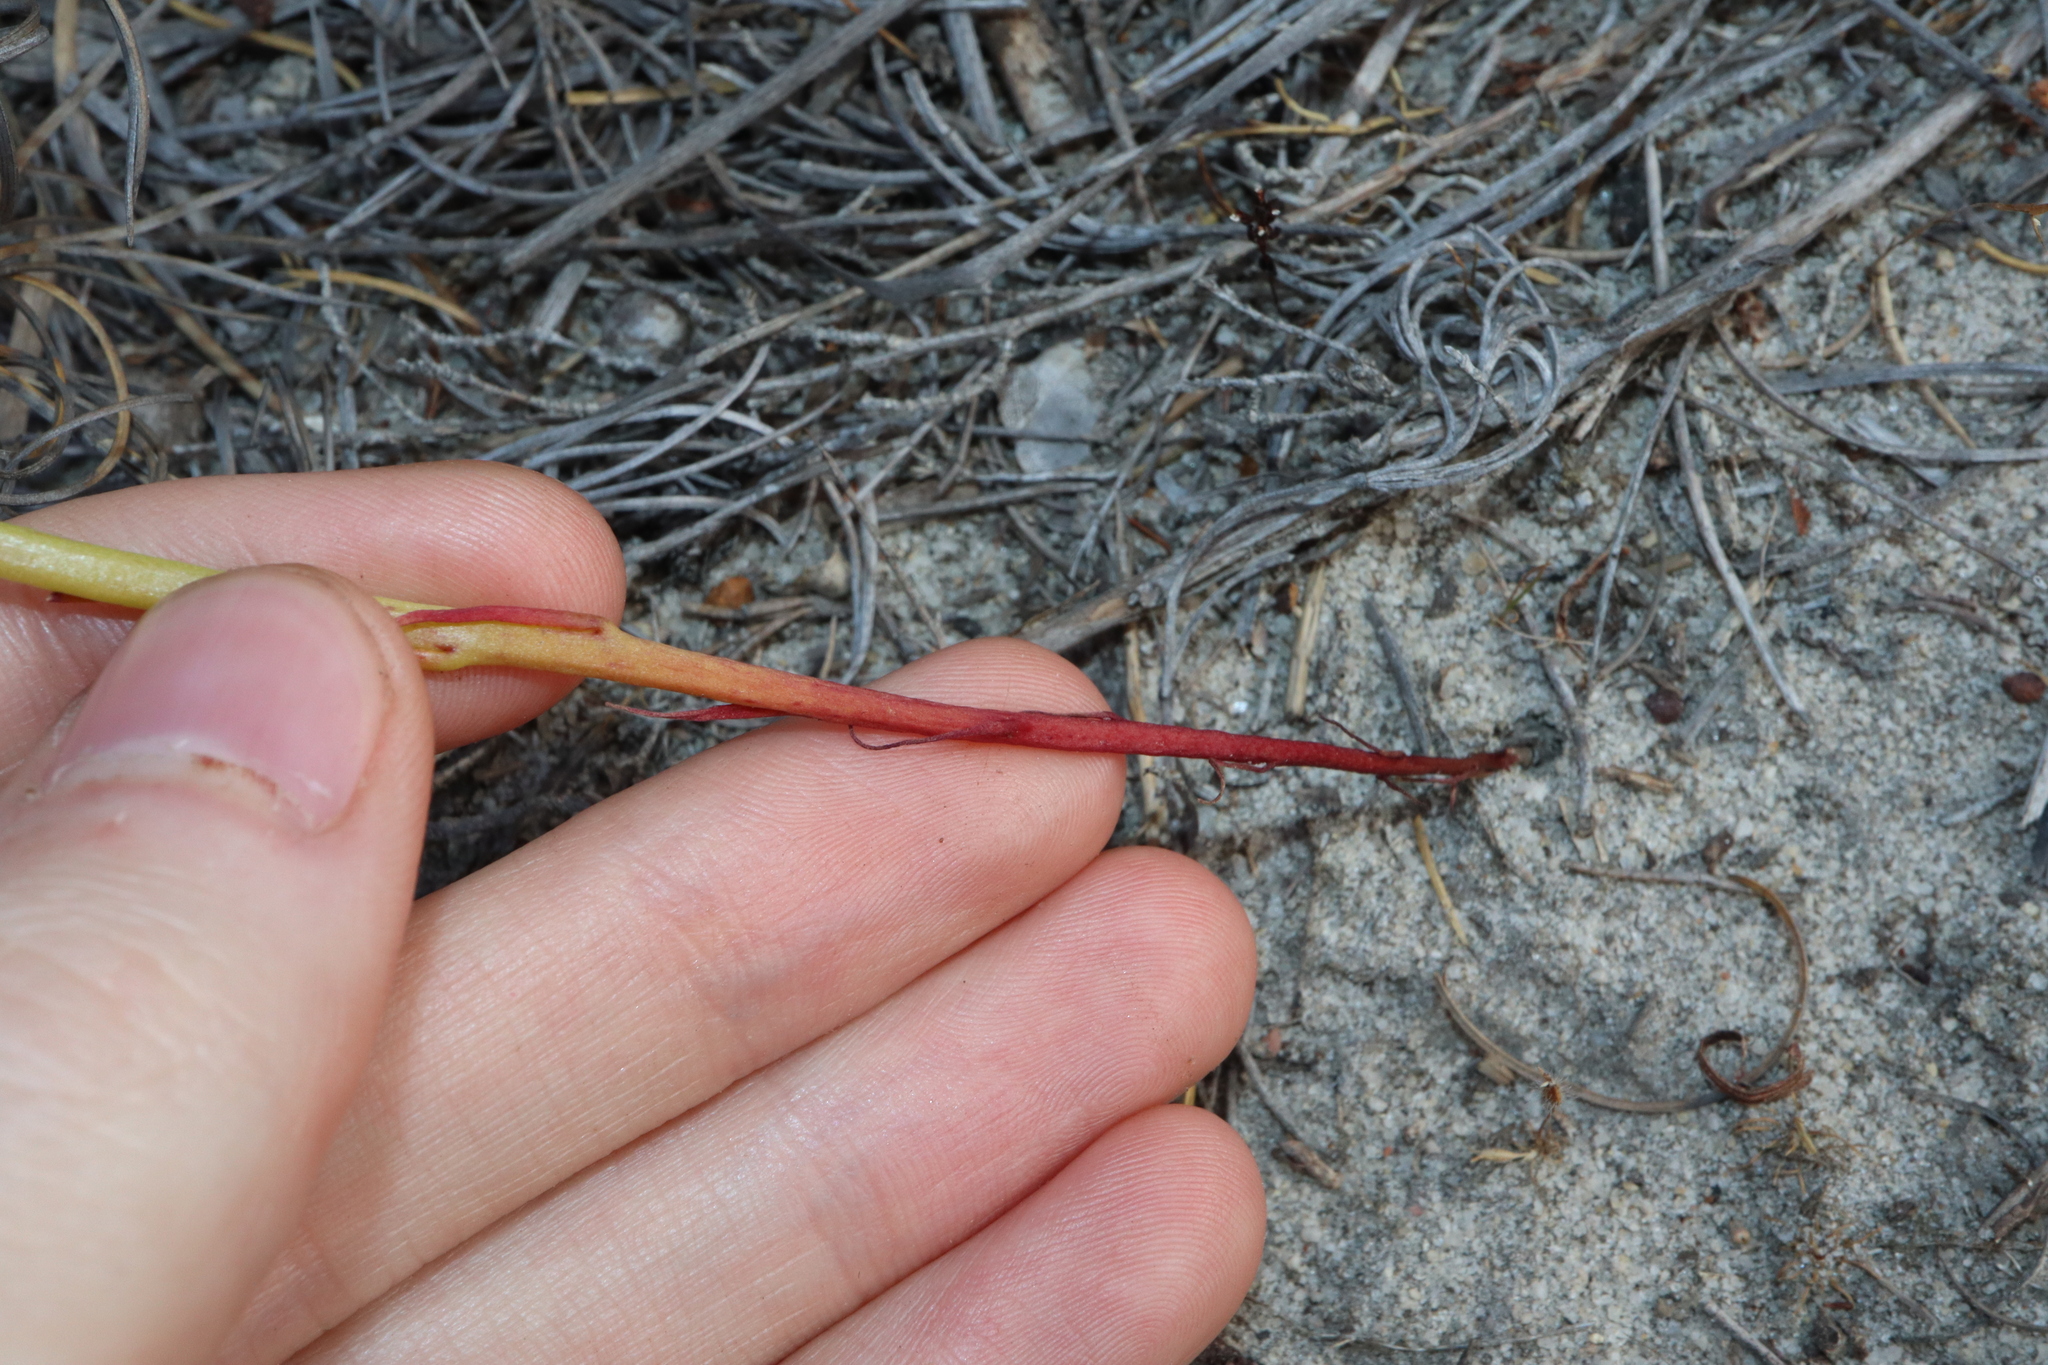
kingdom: Plantae
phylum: Tracheophyta
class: Magnoliopsida
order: Asterales
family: Campanulaceae
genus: Isotoma
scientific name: Isotoma hypocrateriformis
